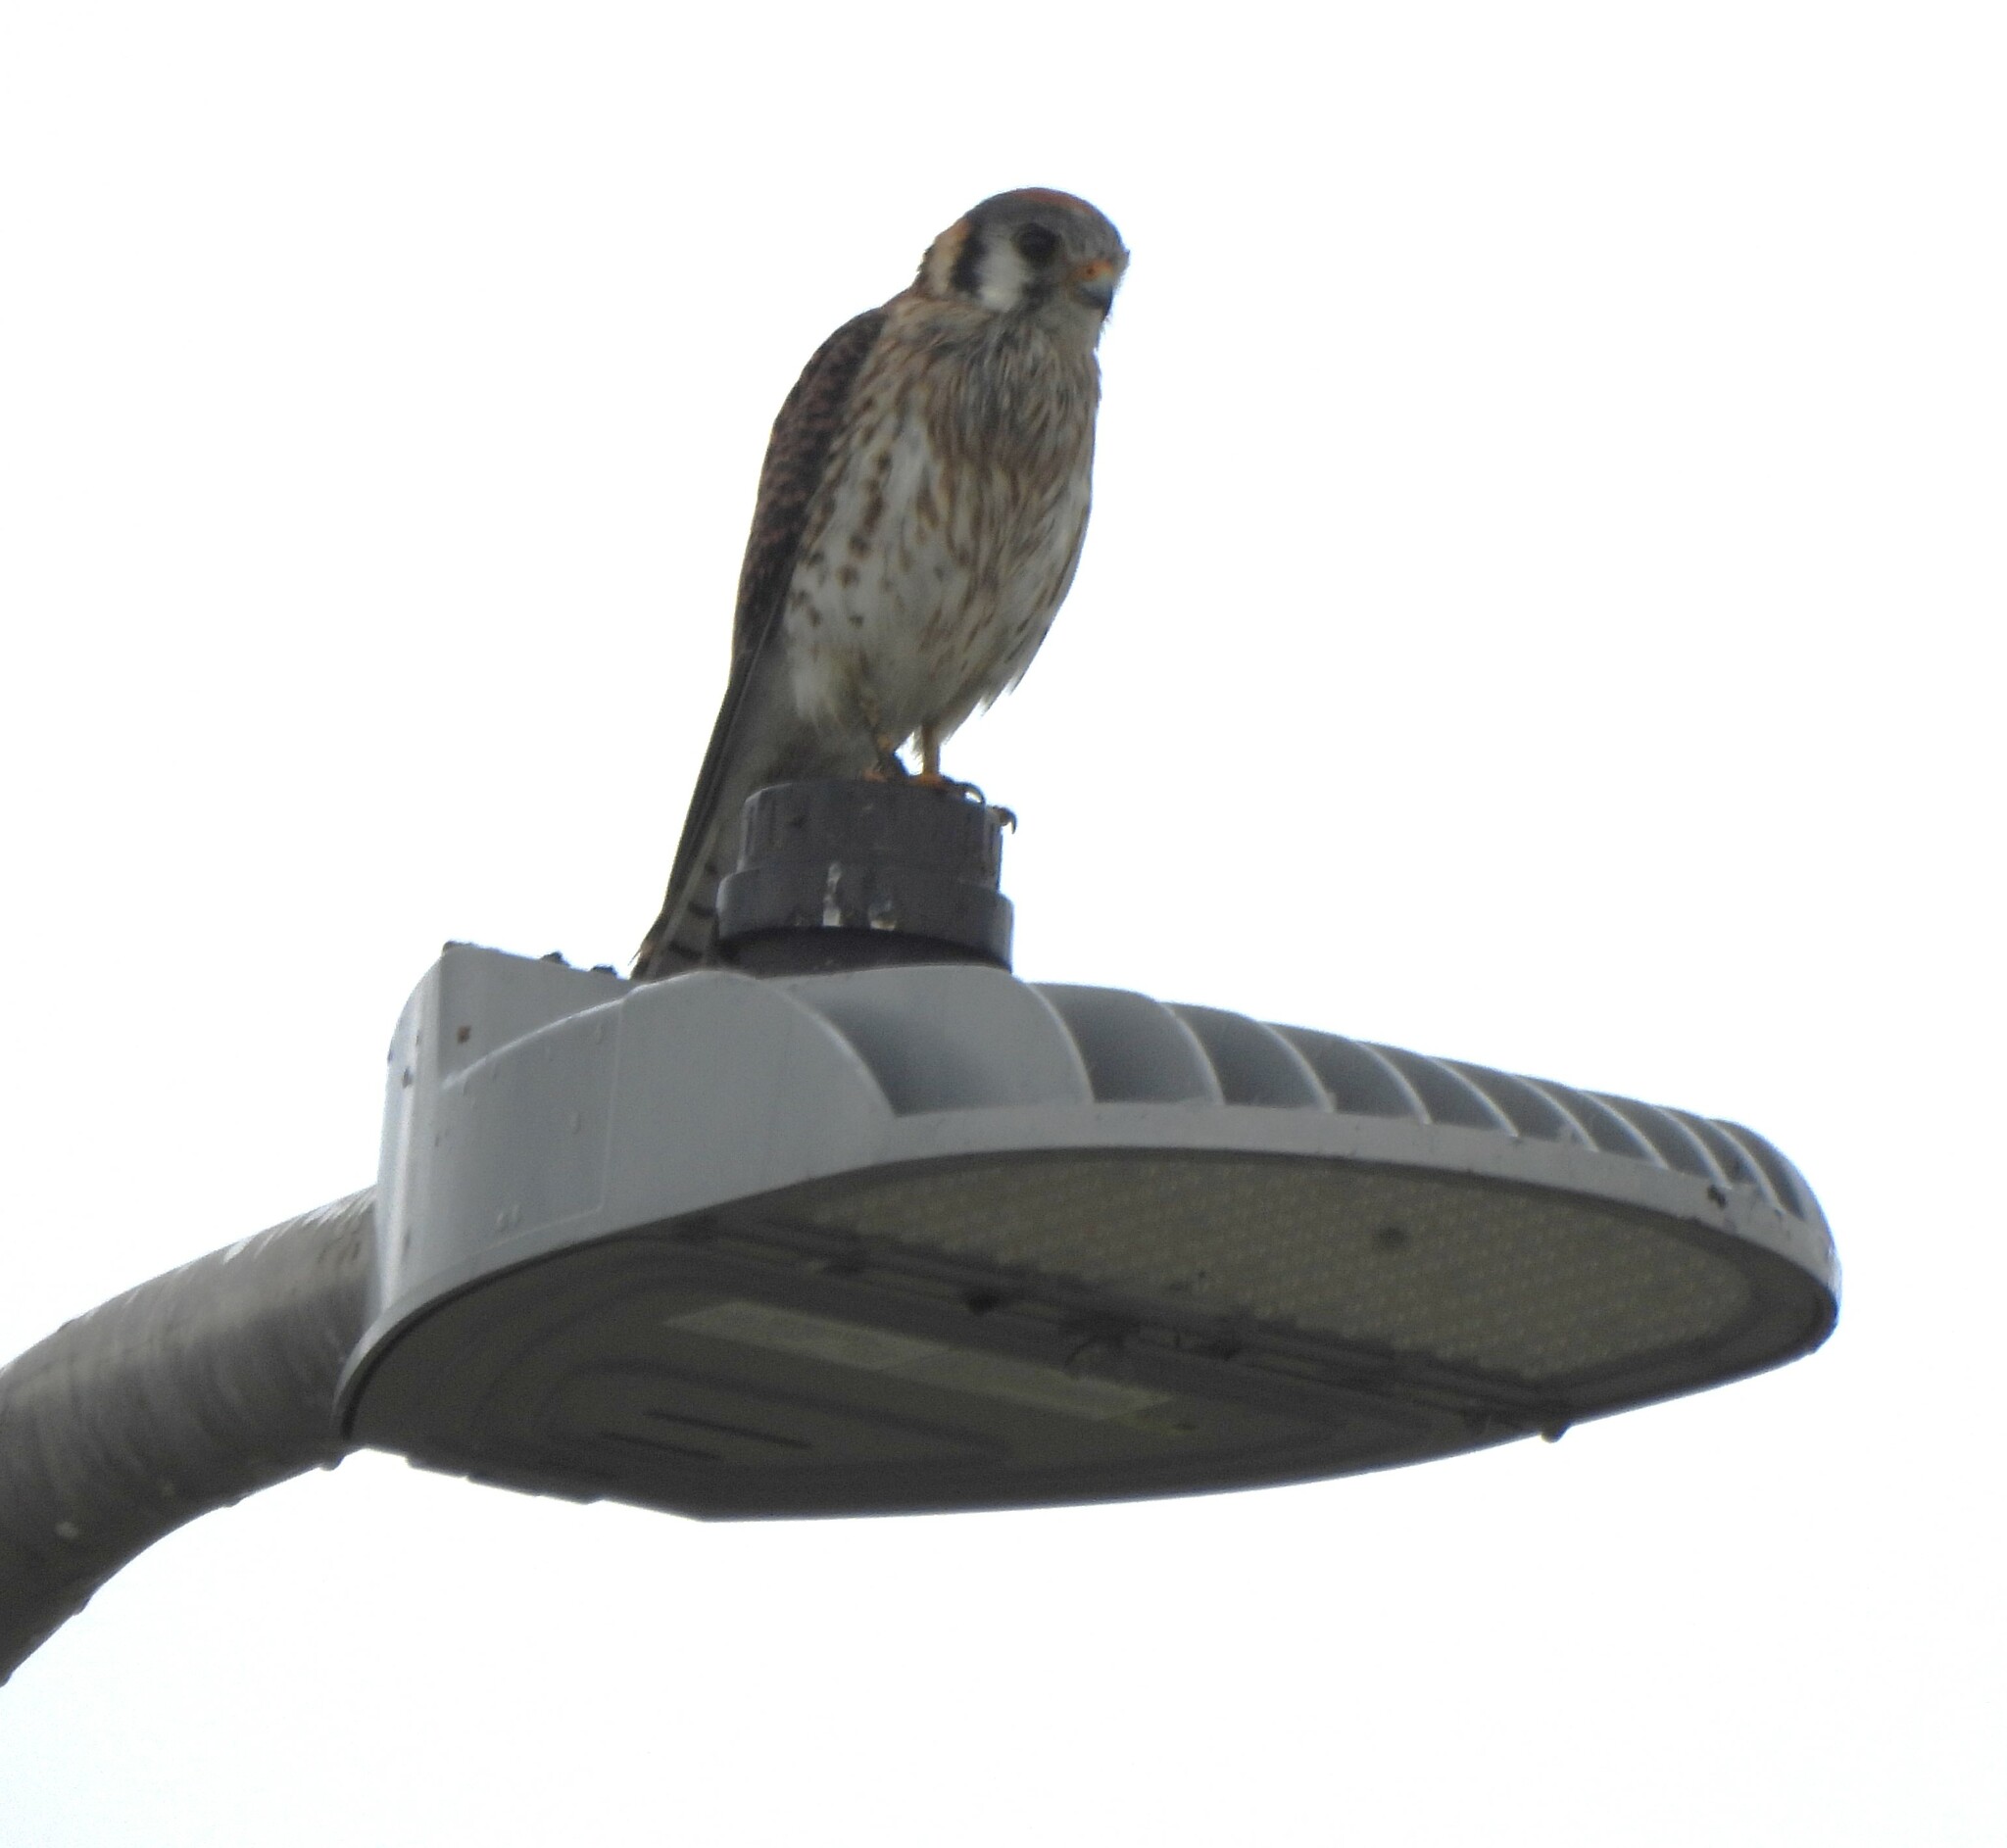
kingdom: Animalia
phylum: Chordata
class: Aves
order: Falconiformes
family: Falconidae
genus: Falco
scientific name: Falco sparverius
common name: American kestrel
